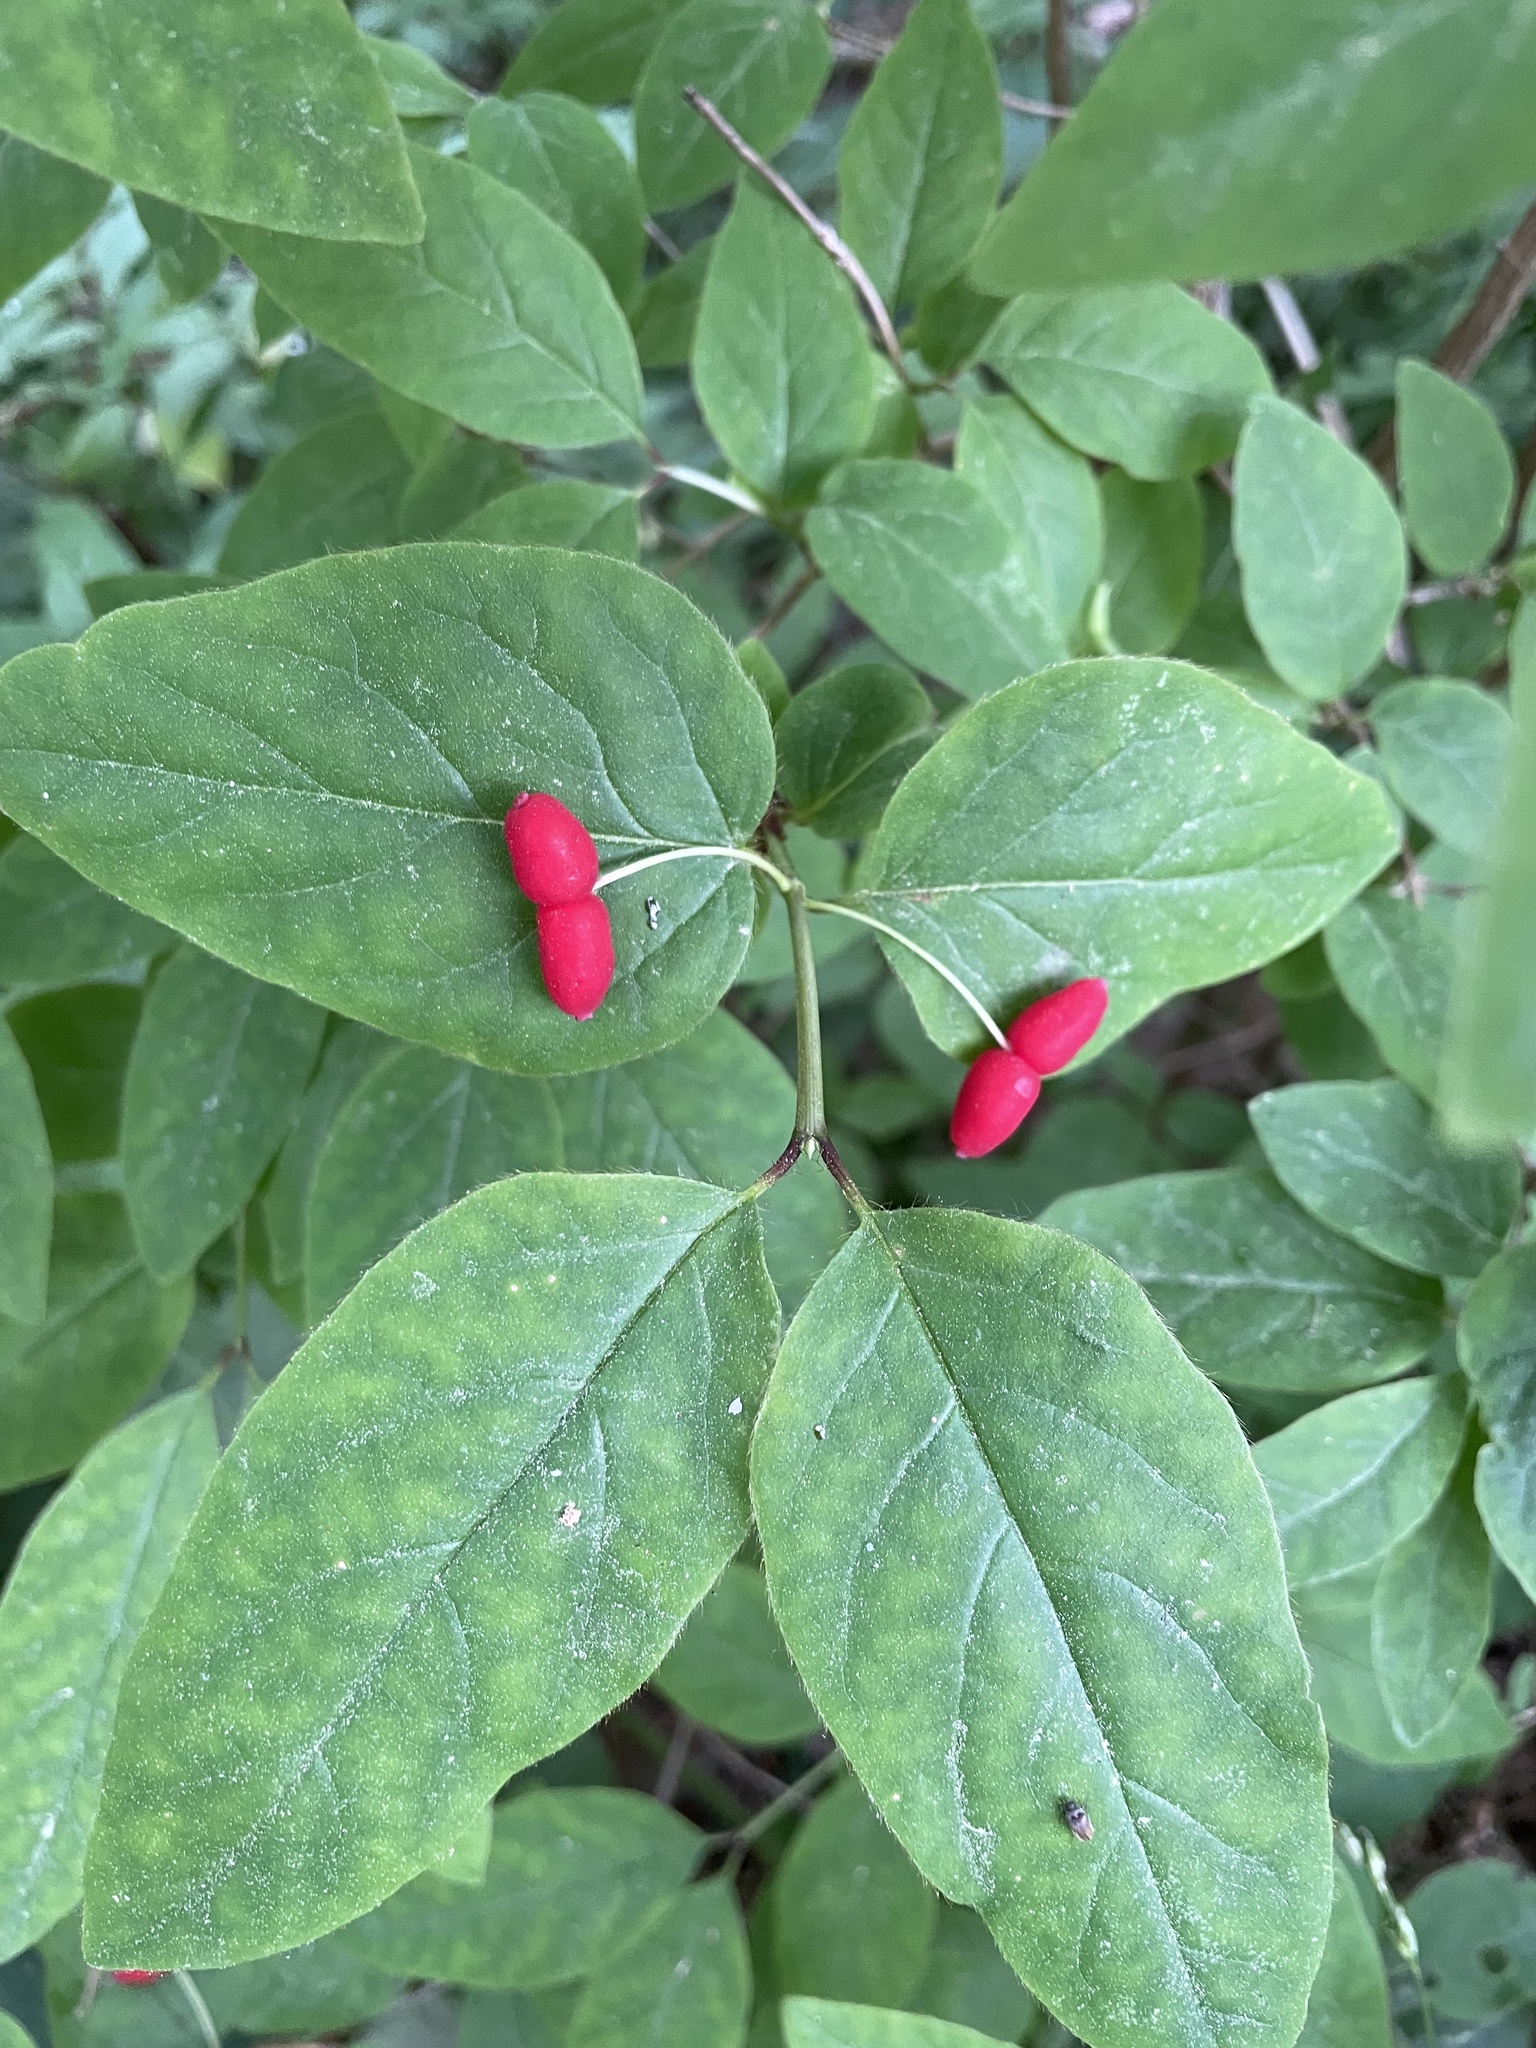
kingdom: Plantae
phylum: Tracheophyta
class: Magnoliopsida
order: Dipsacales
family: Caprifoliaceae
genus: Lonicera
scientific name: Lonicera canadensis
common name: American fly-honeysuckle
